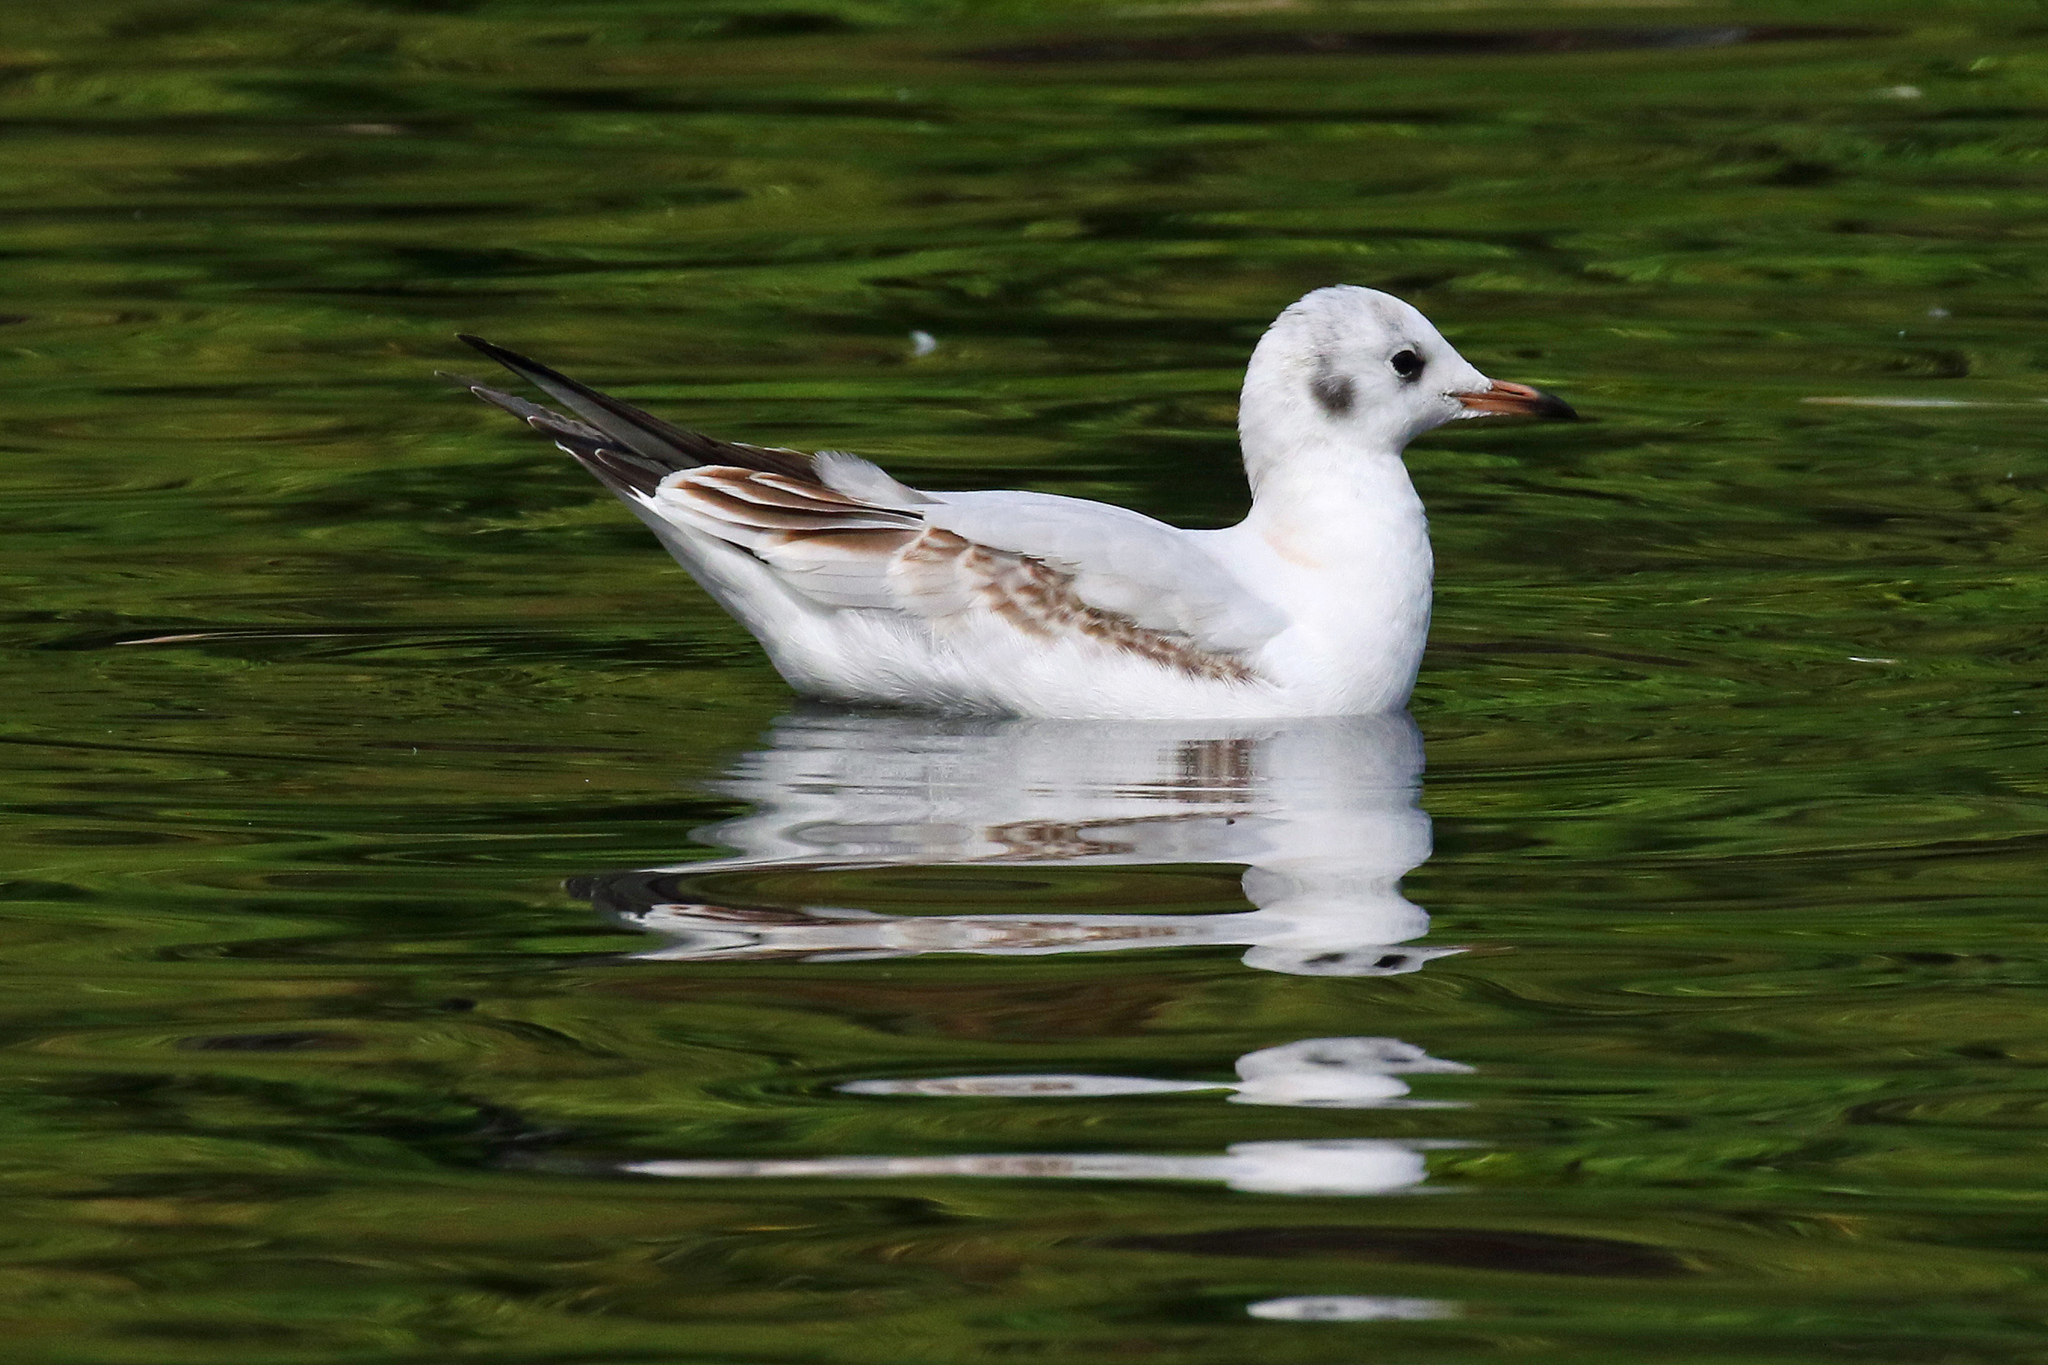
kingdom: Animalia
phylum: Chordata
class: Aves
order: Charadriiformes
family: Laridae
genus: Chroicocephalus
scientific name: Chroicocephalus ridibundus
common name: Black-headed gull
